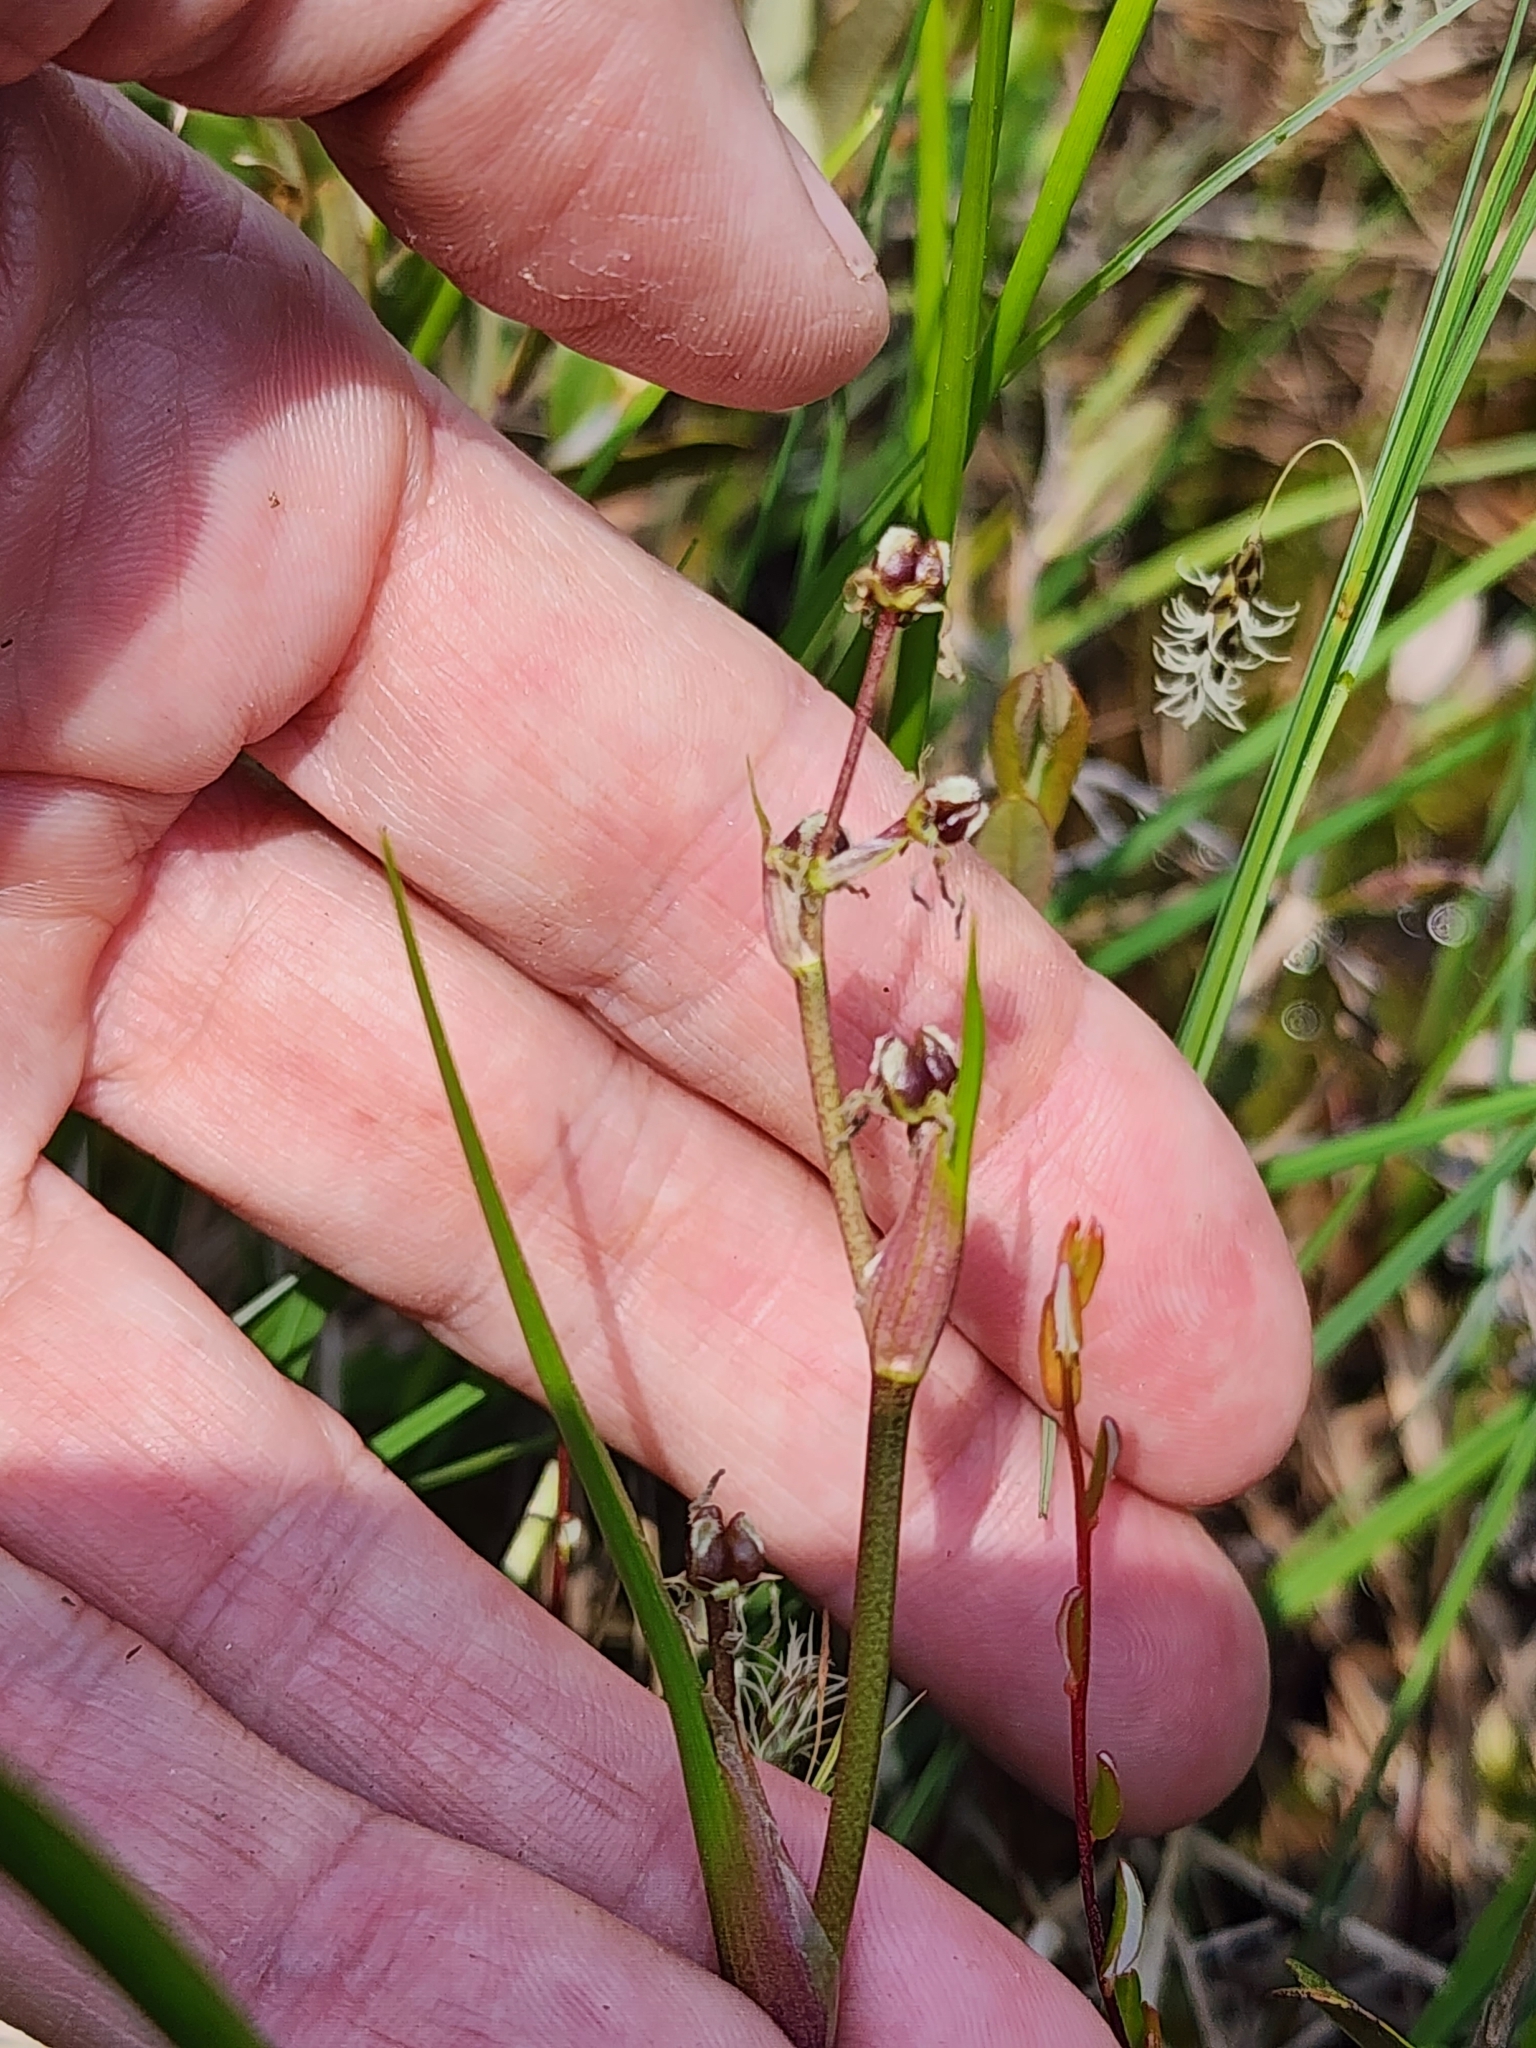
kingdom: Plantae
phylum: Tracheophyta
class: Liliopsida
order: Alismatales
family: Scheuchzeriaceae
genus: Scheuchzeria
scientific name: Scheuchzeria palustris
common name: Rannoch-rush
